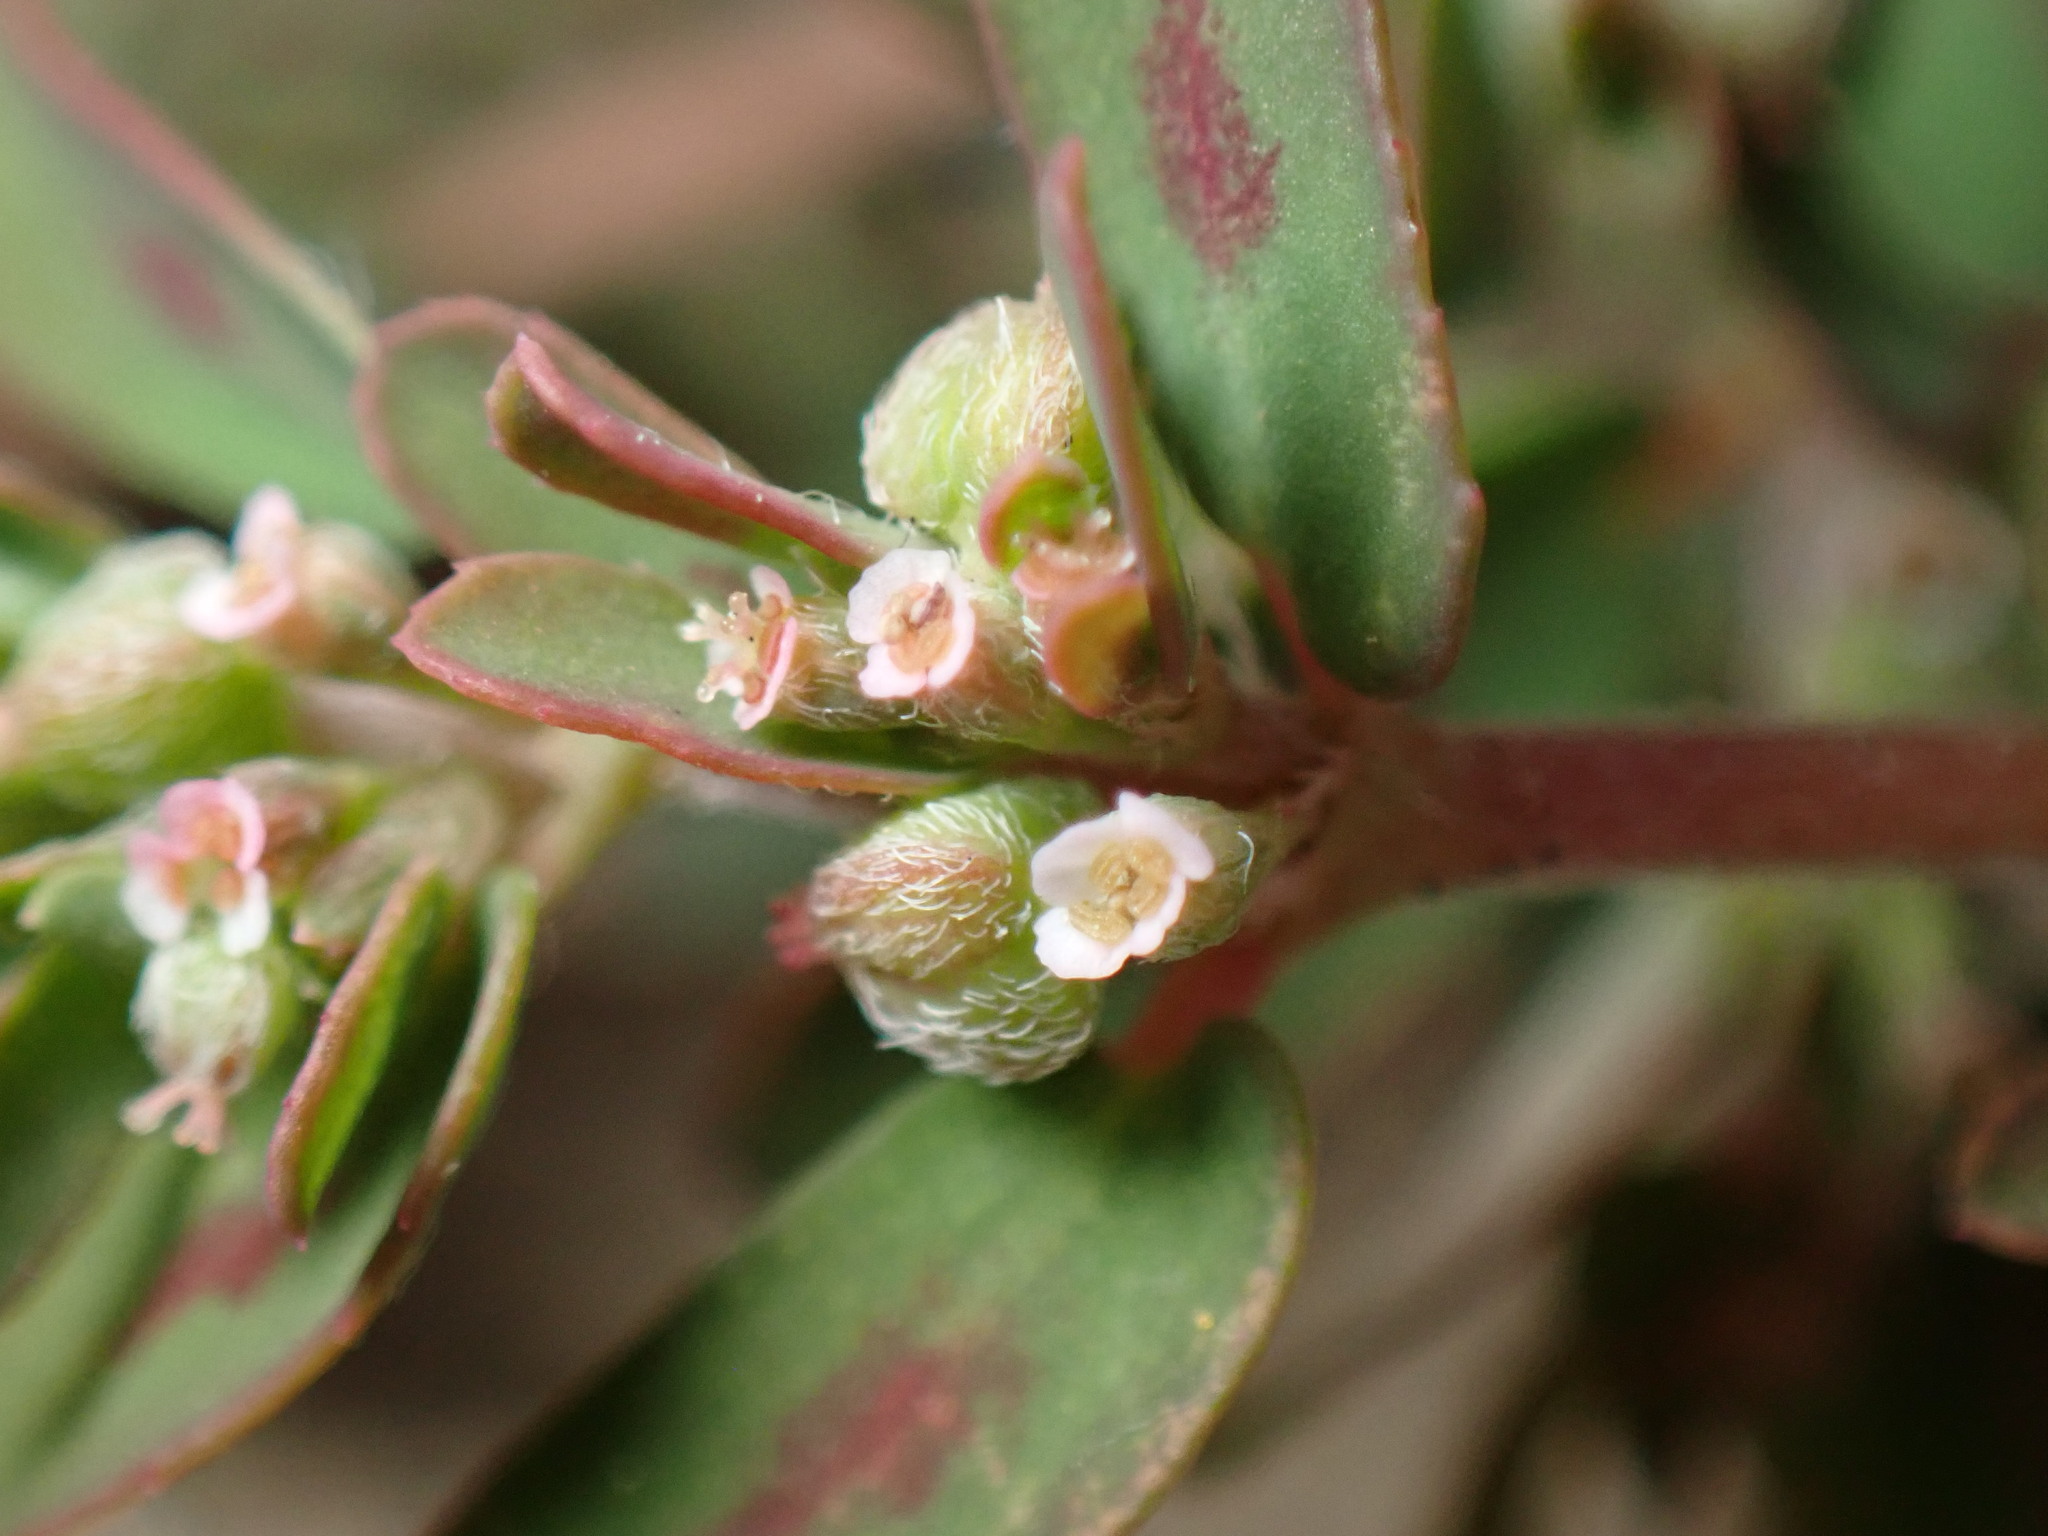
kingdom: Plantae
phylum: Tracheophyta
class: Magnoliopsida
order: Malpighiales
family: Euphorbiaceae
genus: Euphorbia
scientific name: Euphorbia maculata
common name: Spotted spurge
